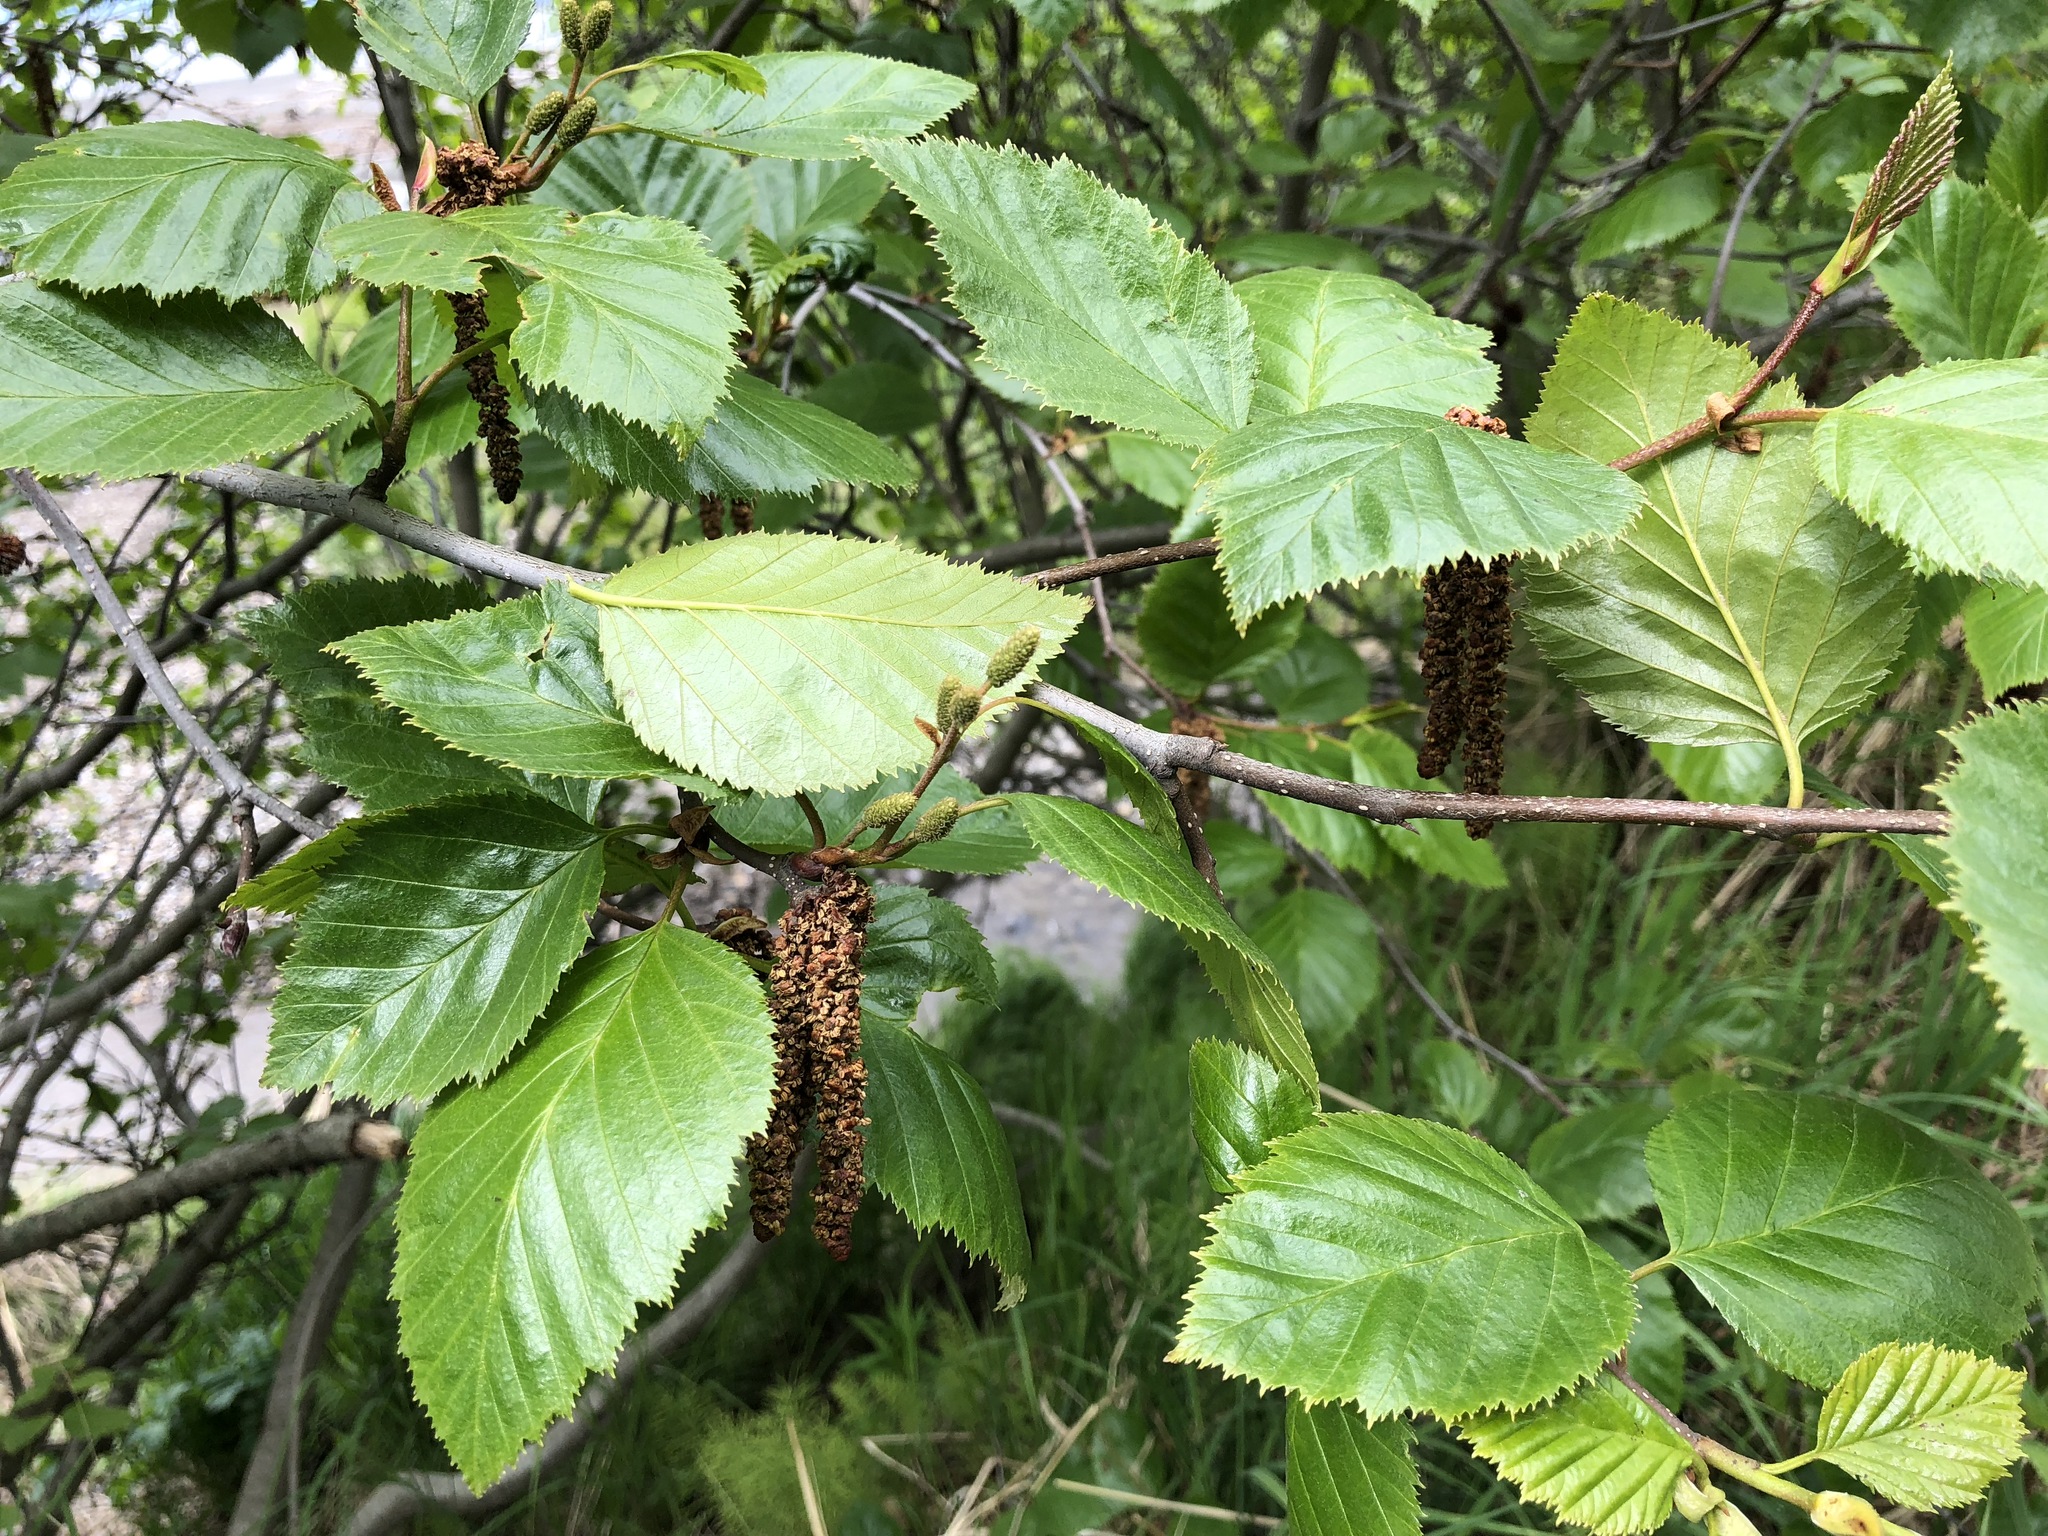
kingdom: Plantae
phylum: Tracheophyta
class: Magnoliopsida
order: Fagales
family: Betulaceae
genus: Alnus
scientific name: Alnus alnobetula
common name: Green alder
